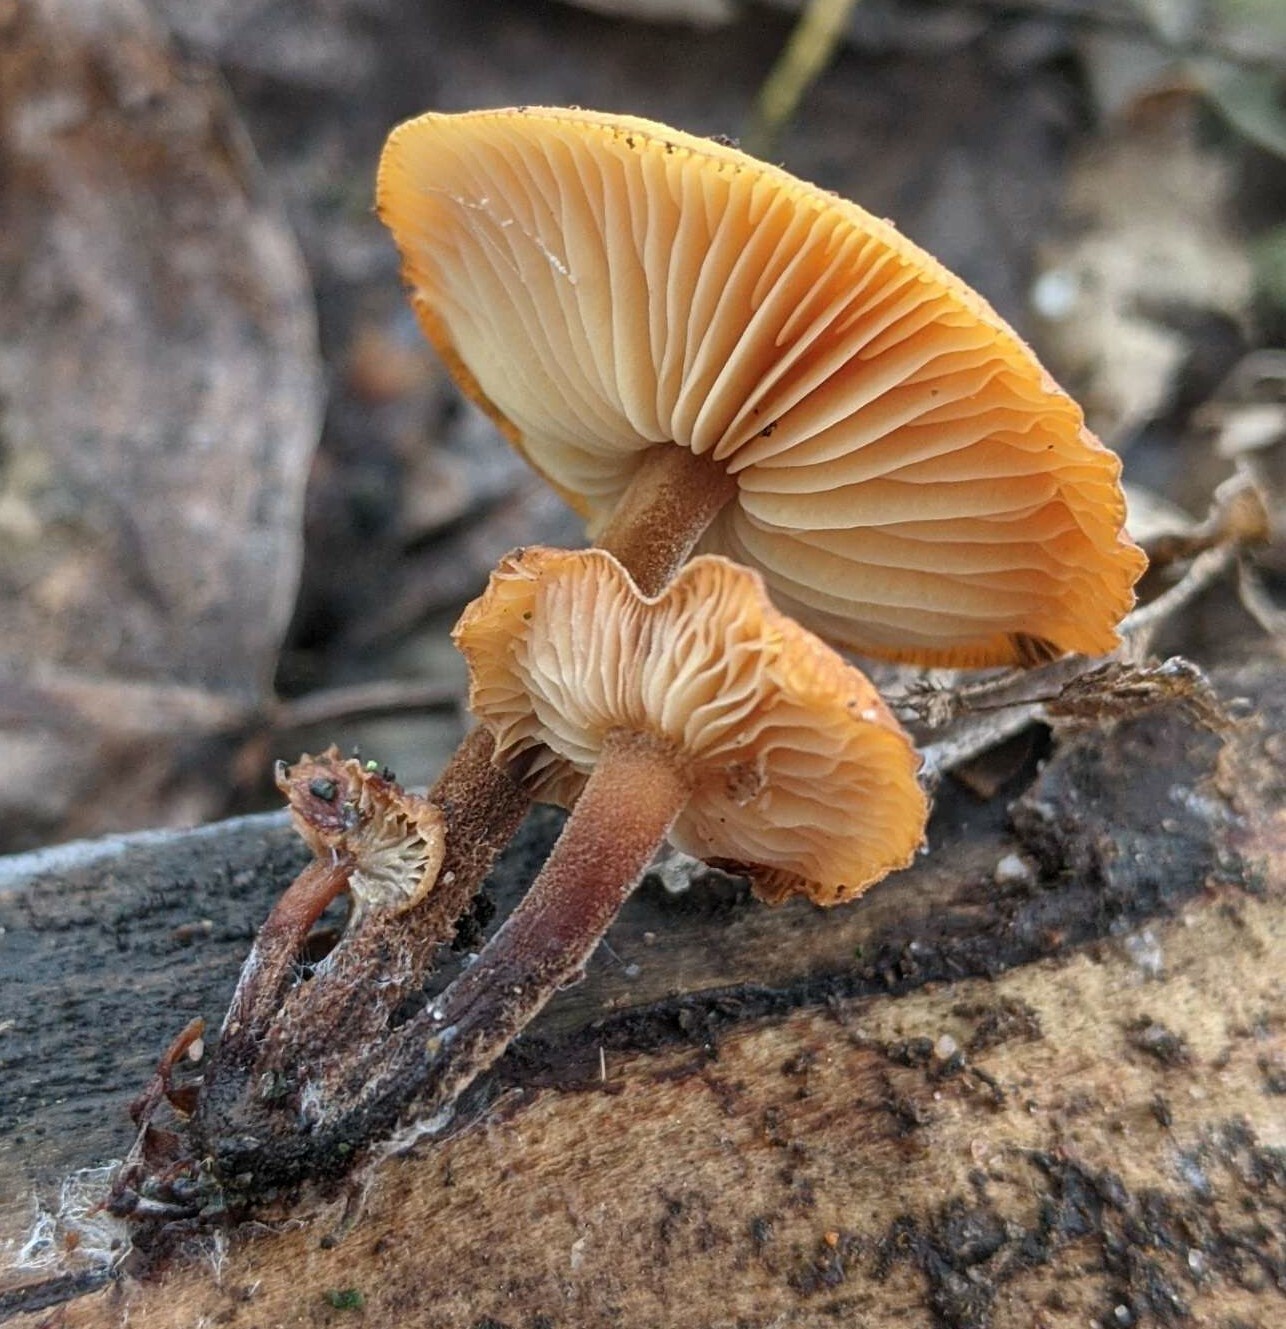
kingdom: Fungi
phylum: Basidiomycota
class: Agaricomycetes
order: Agaricales
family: Physalacriaceae
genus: Flammulina
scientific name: Flammulina
